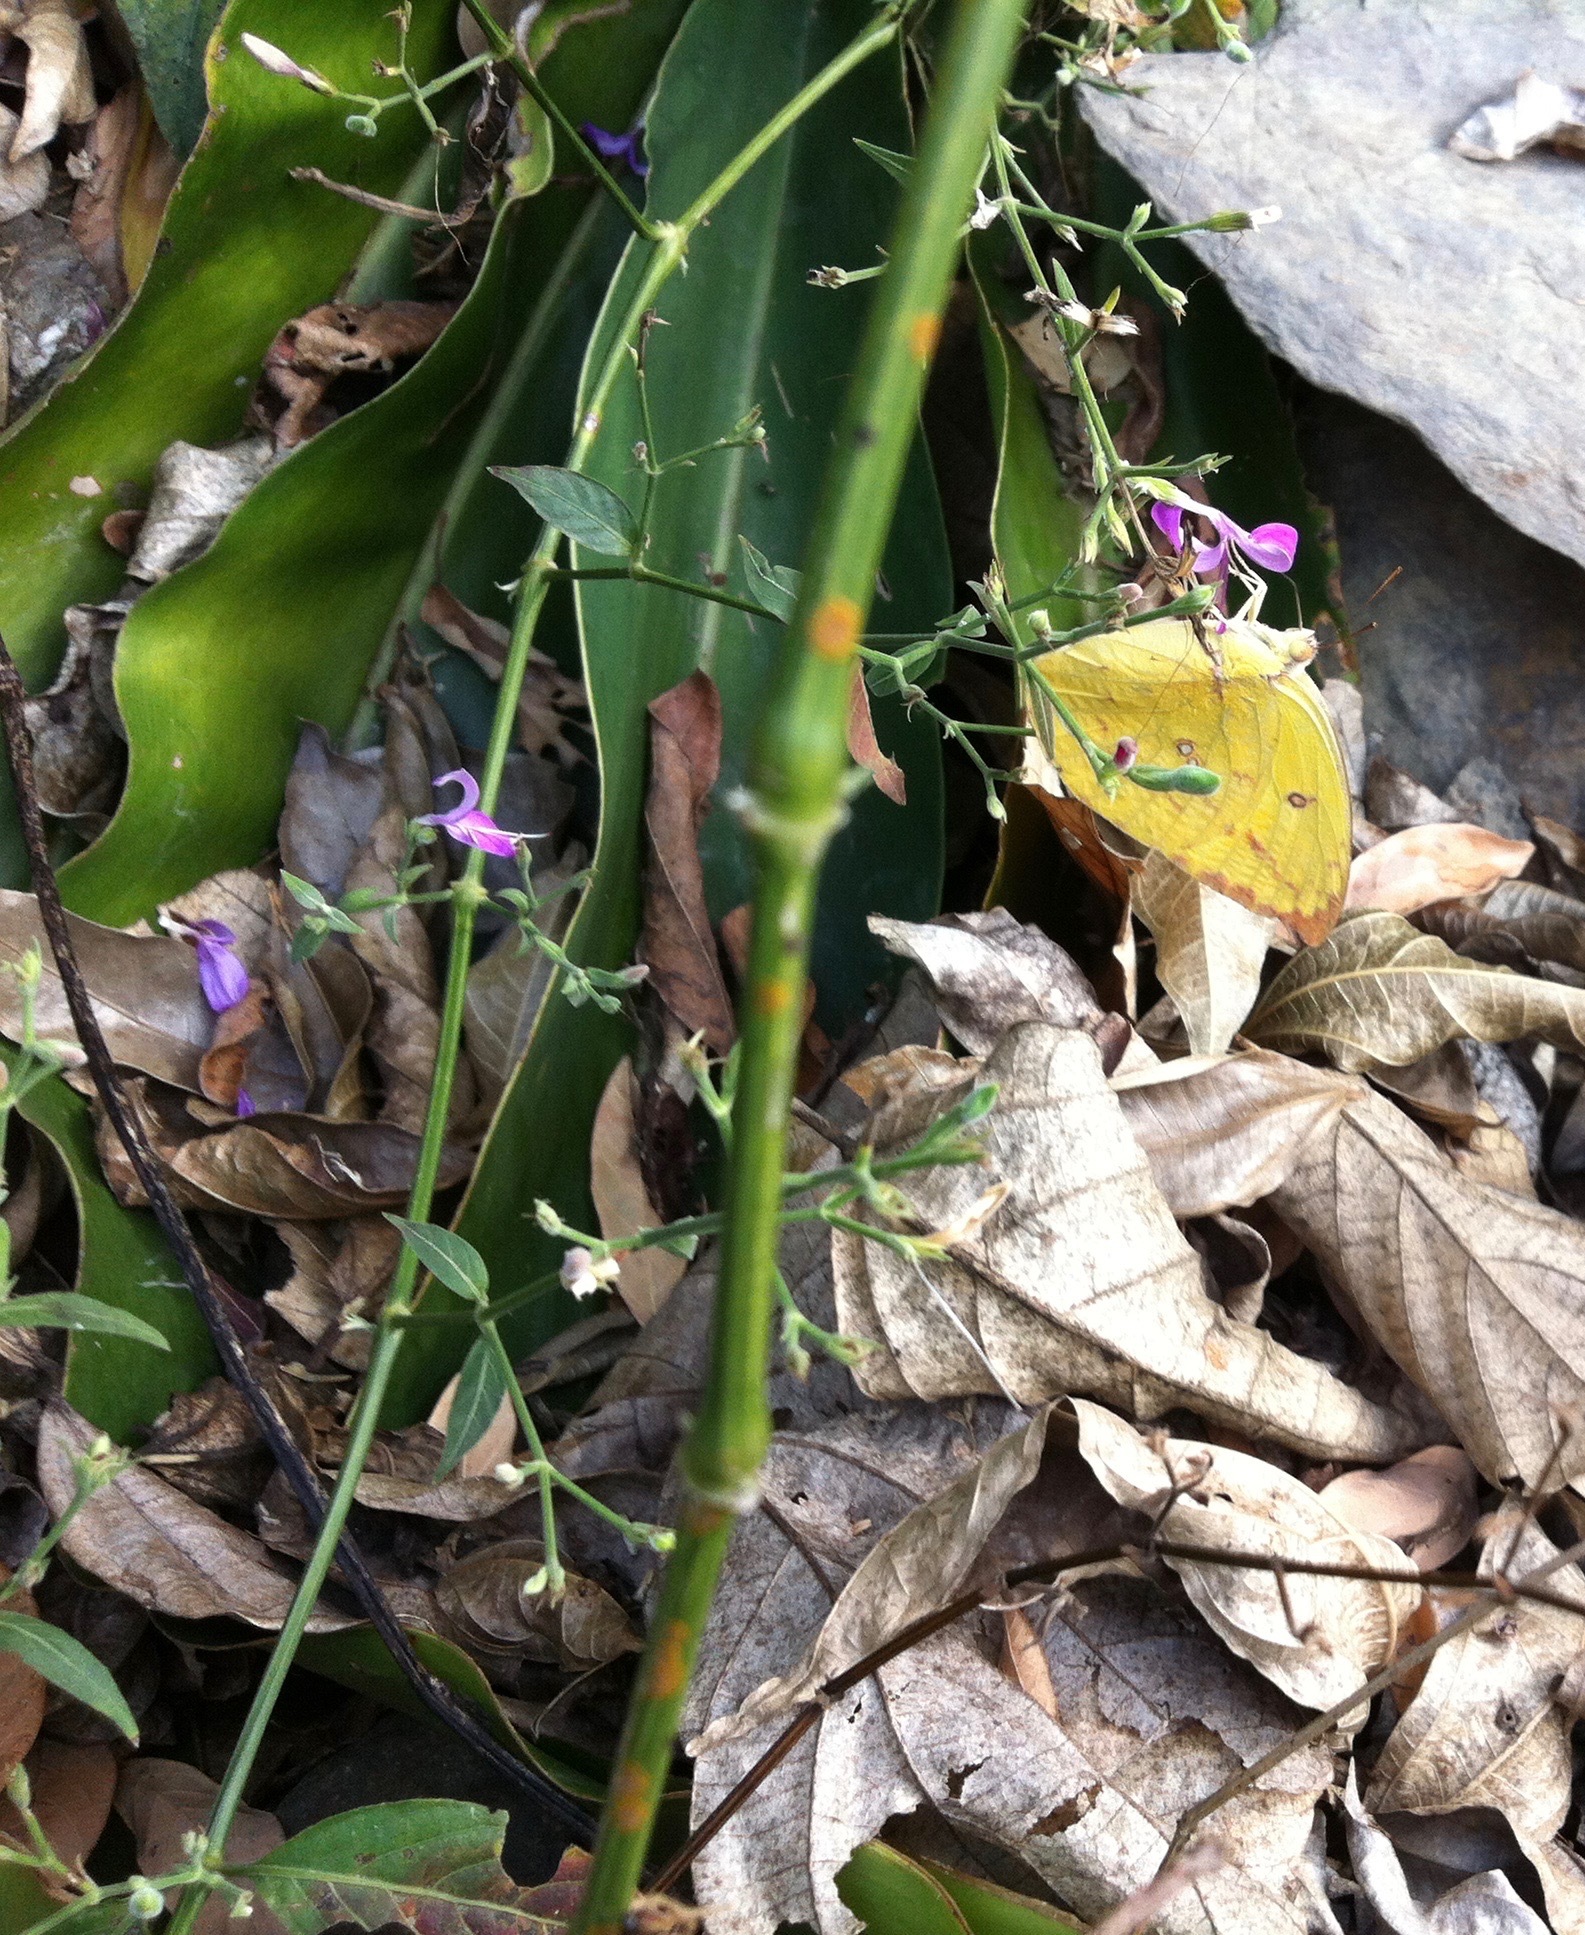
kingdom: Animalia
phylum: Arthropoda
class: Insecta
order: Lepidoptera
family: Pieridae
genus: Catopsilia
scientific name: Catopsilia pomona
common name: Common emigrant
